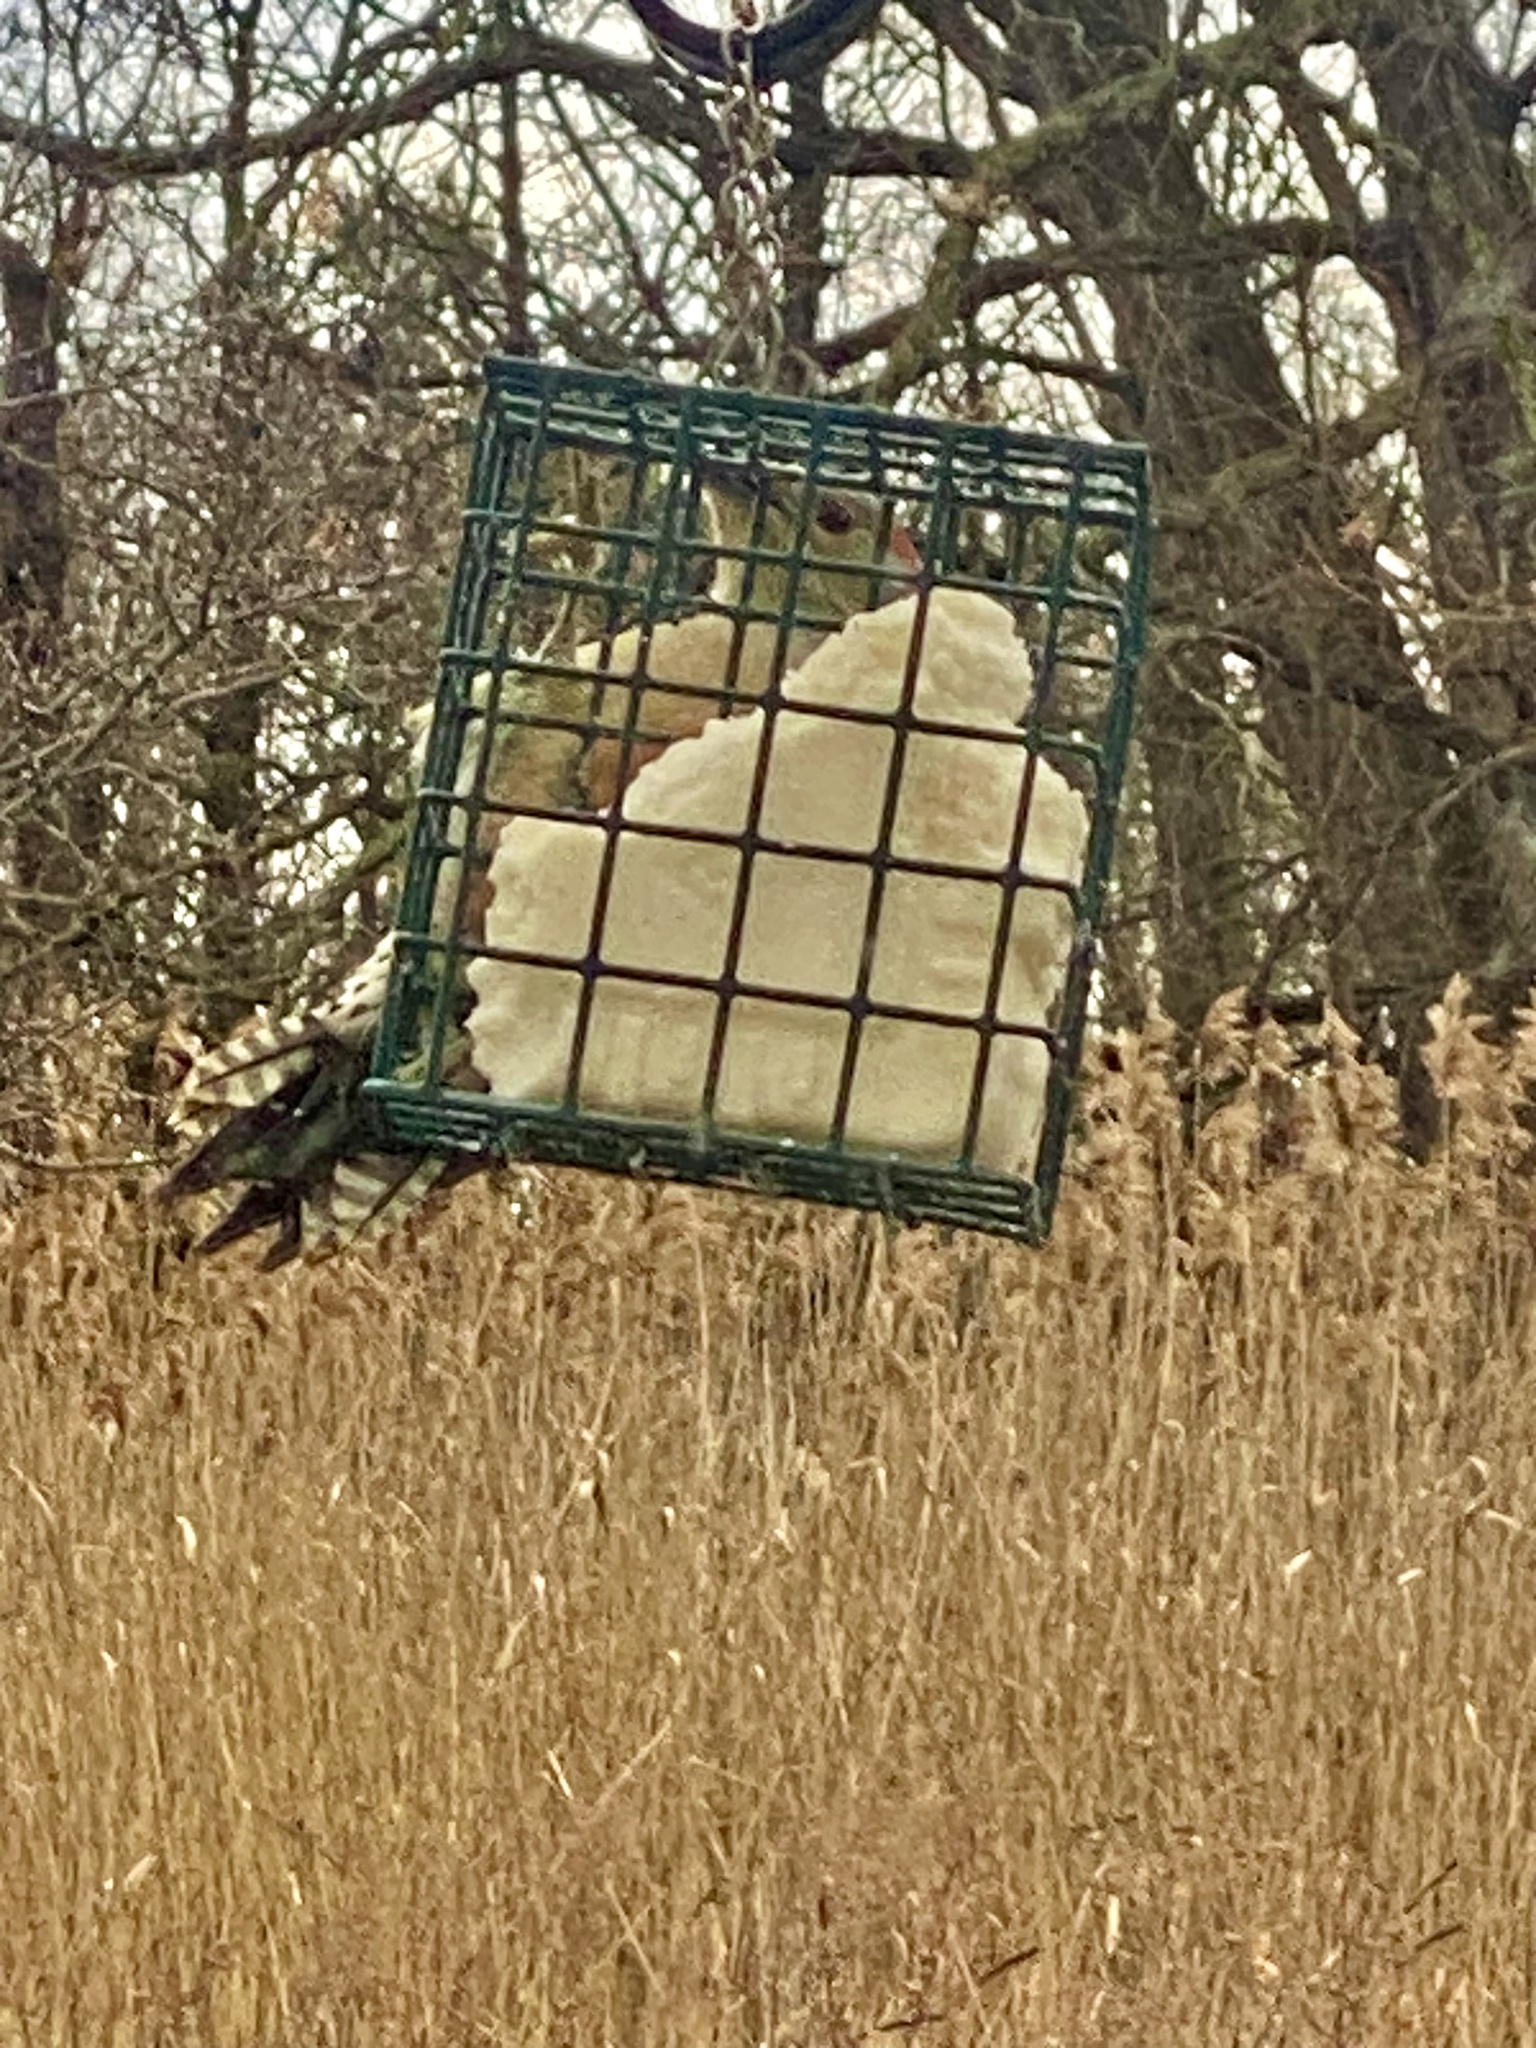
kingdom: Animalia
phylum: Chordata
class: Aves
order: Piciformes
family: Picidae
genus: Melanerpes
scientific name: Melanerpes carolinus
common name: Red-bellied woodpecker
